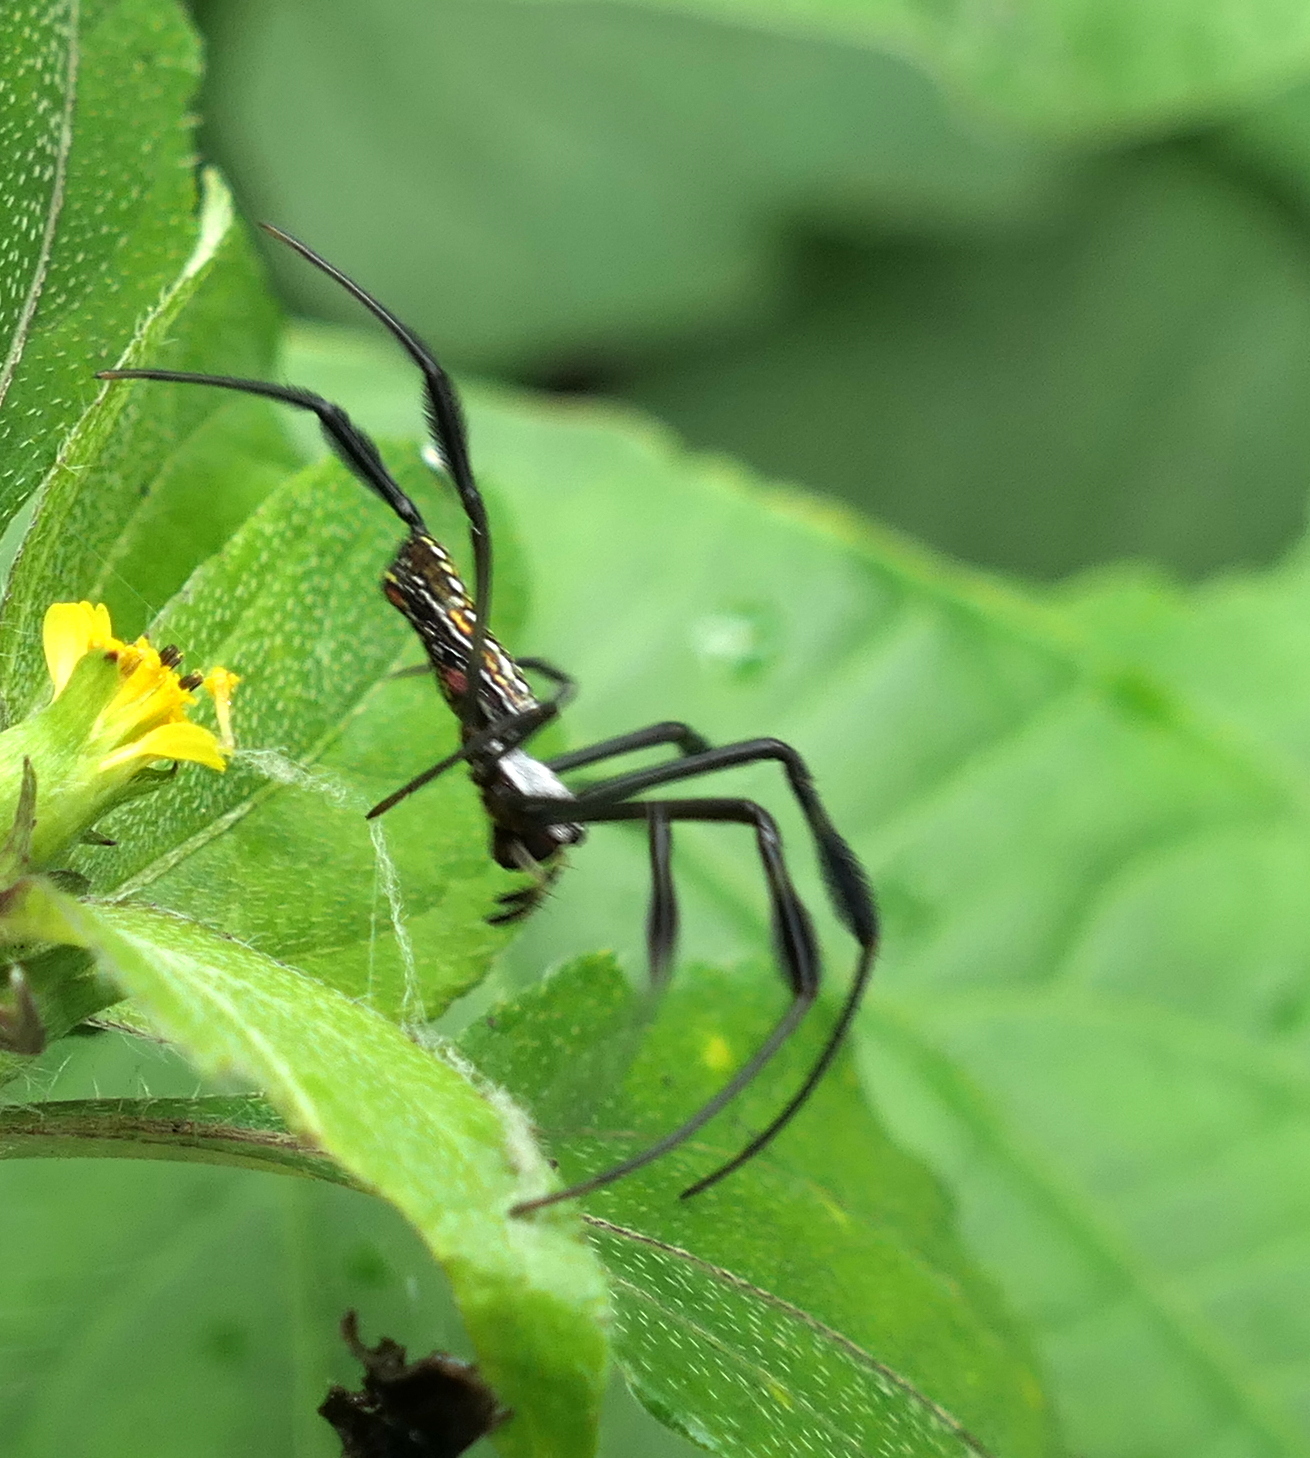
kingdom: Animalia
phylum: Arthropoda
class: Arachnida
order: Araneae
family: Araneidae
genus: Trichonephila
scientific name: Trichonephila clavipes
